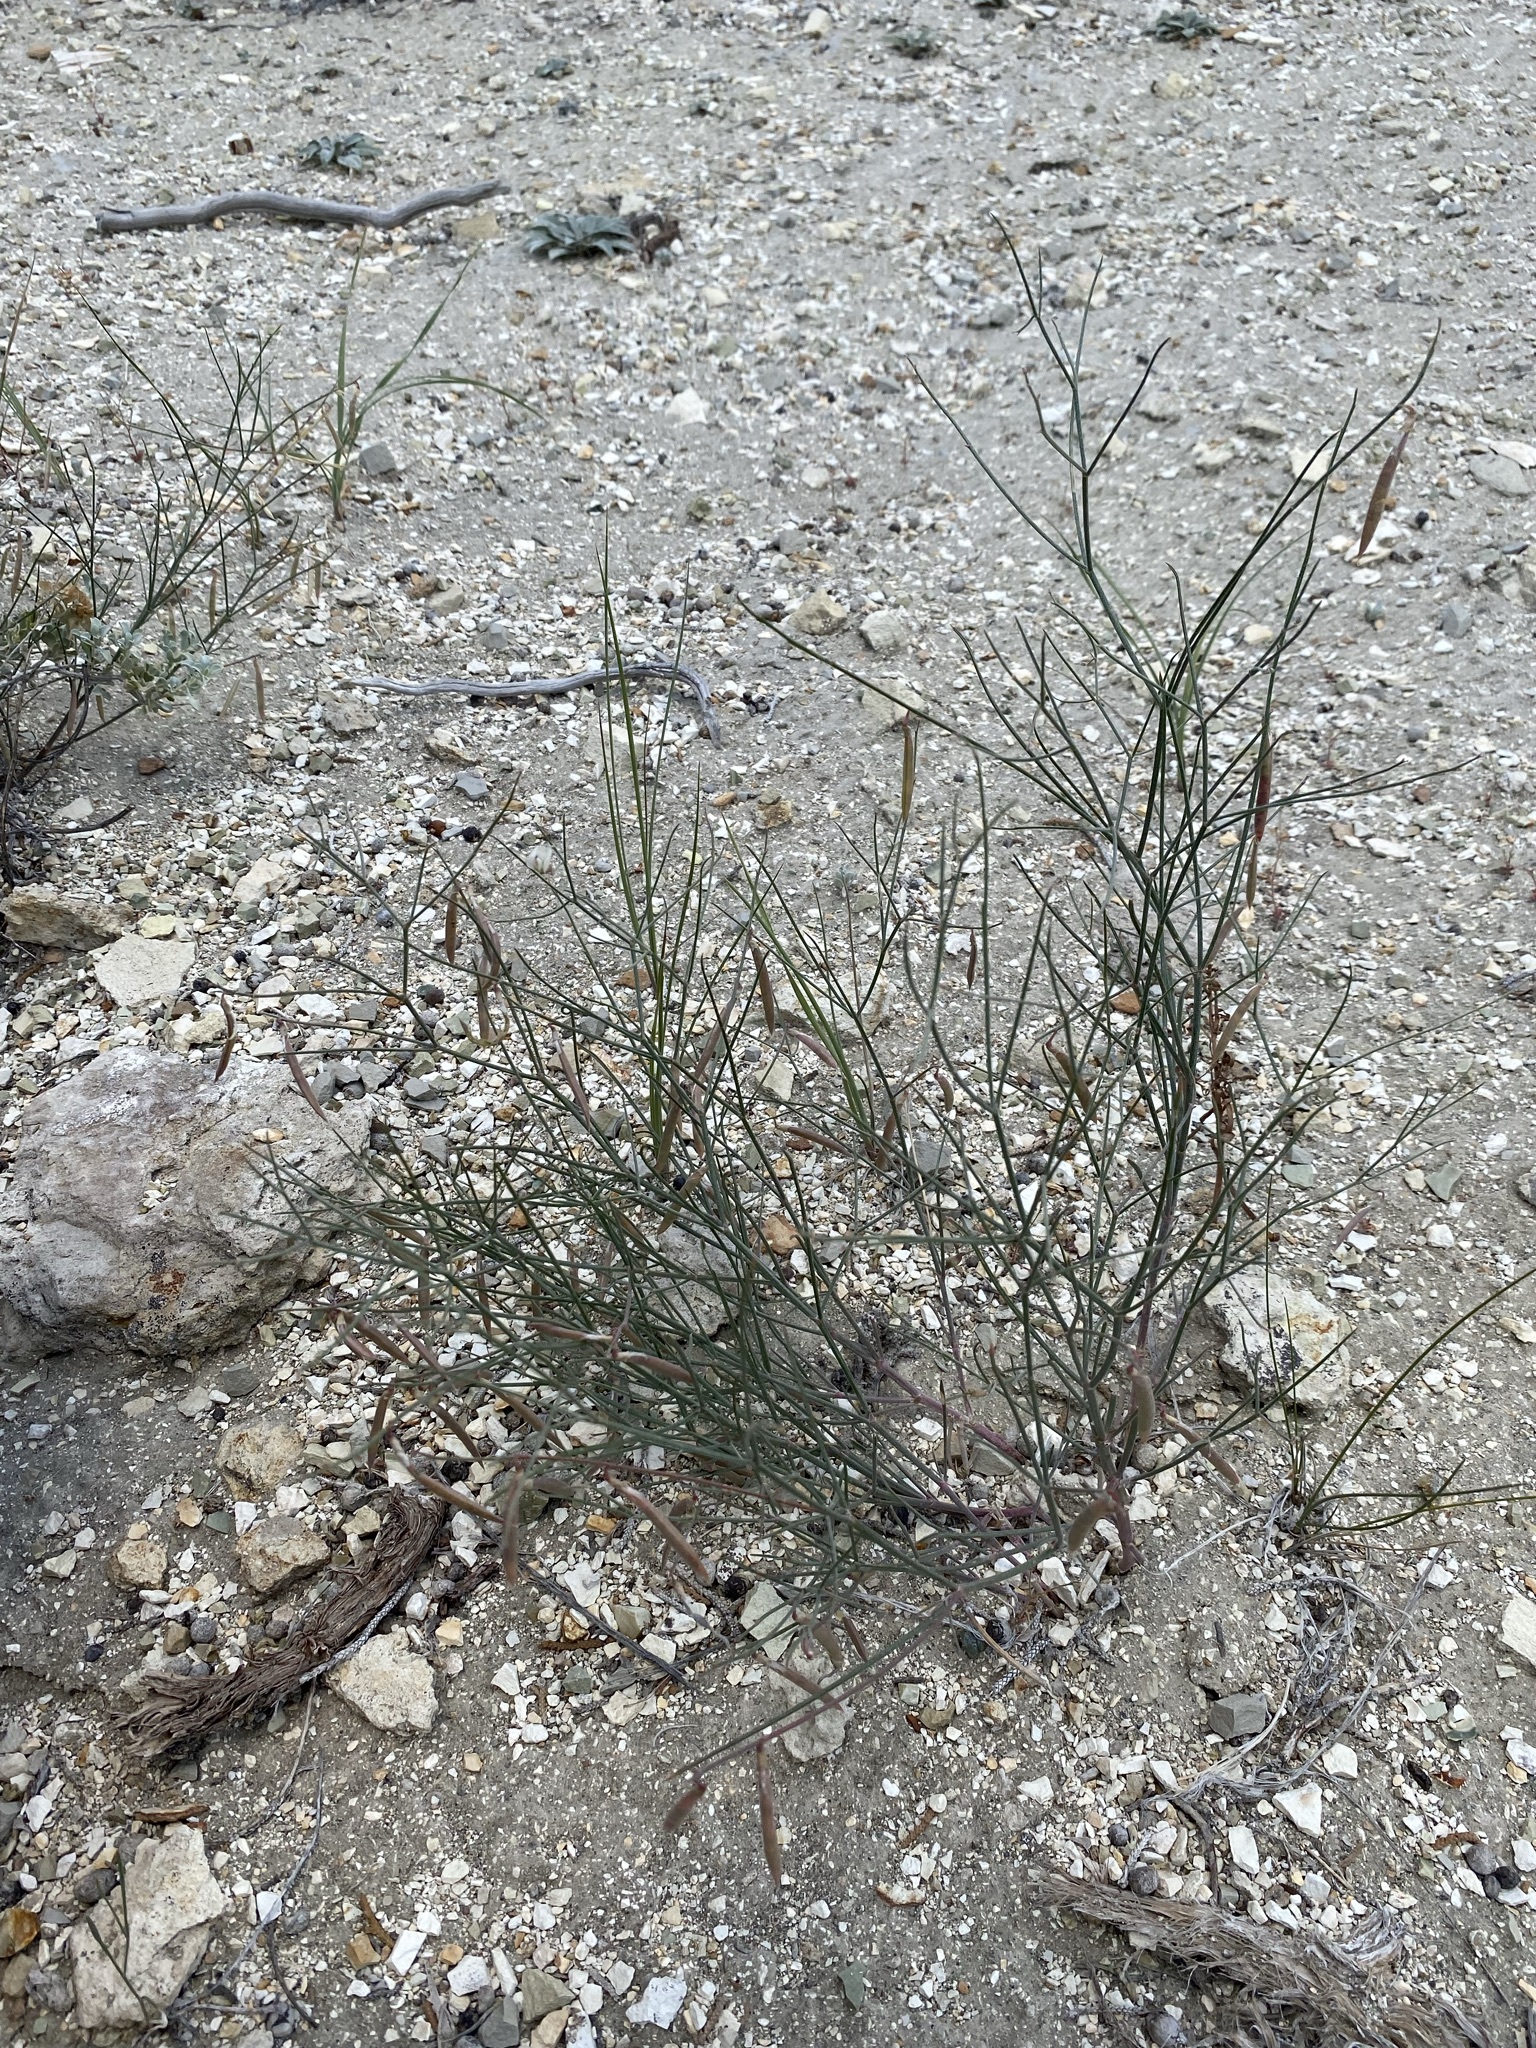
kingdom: Plantae
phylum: Tracheophyta
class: Magnoliopsida
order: Fabales
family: Fabaceae
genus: Astragalus
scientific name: Astragalus convallarius
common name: Lesser rushy milk-vetch
